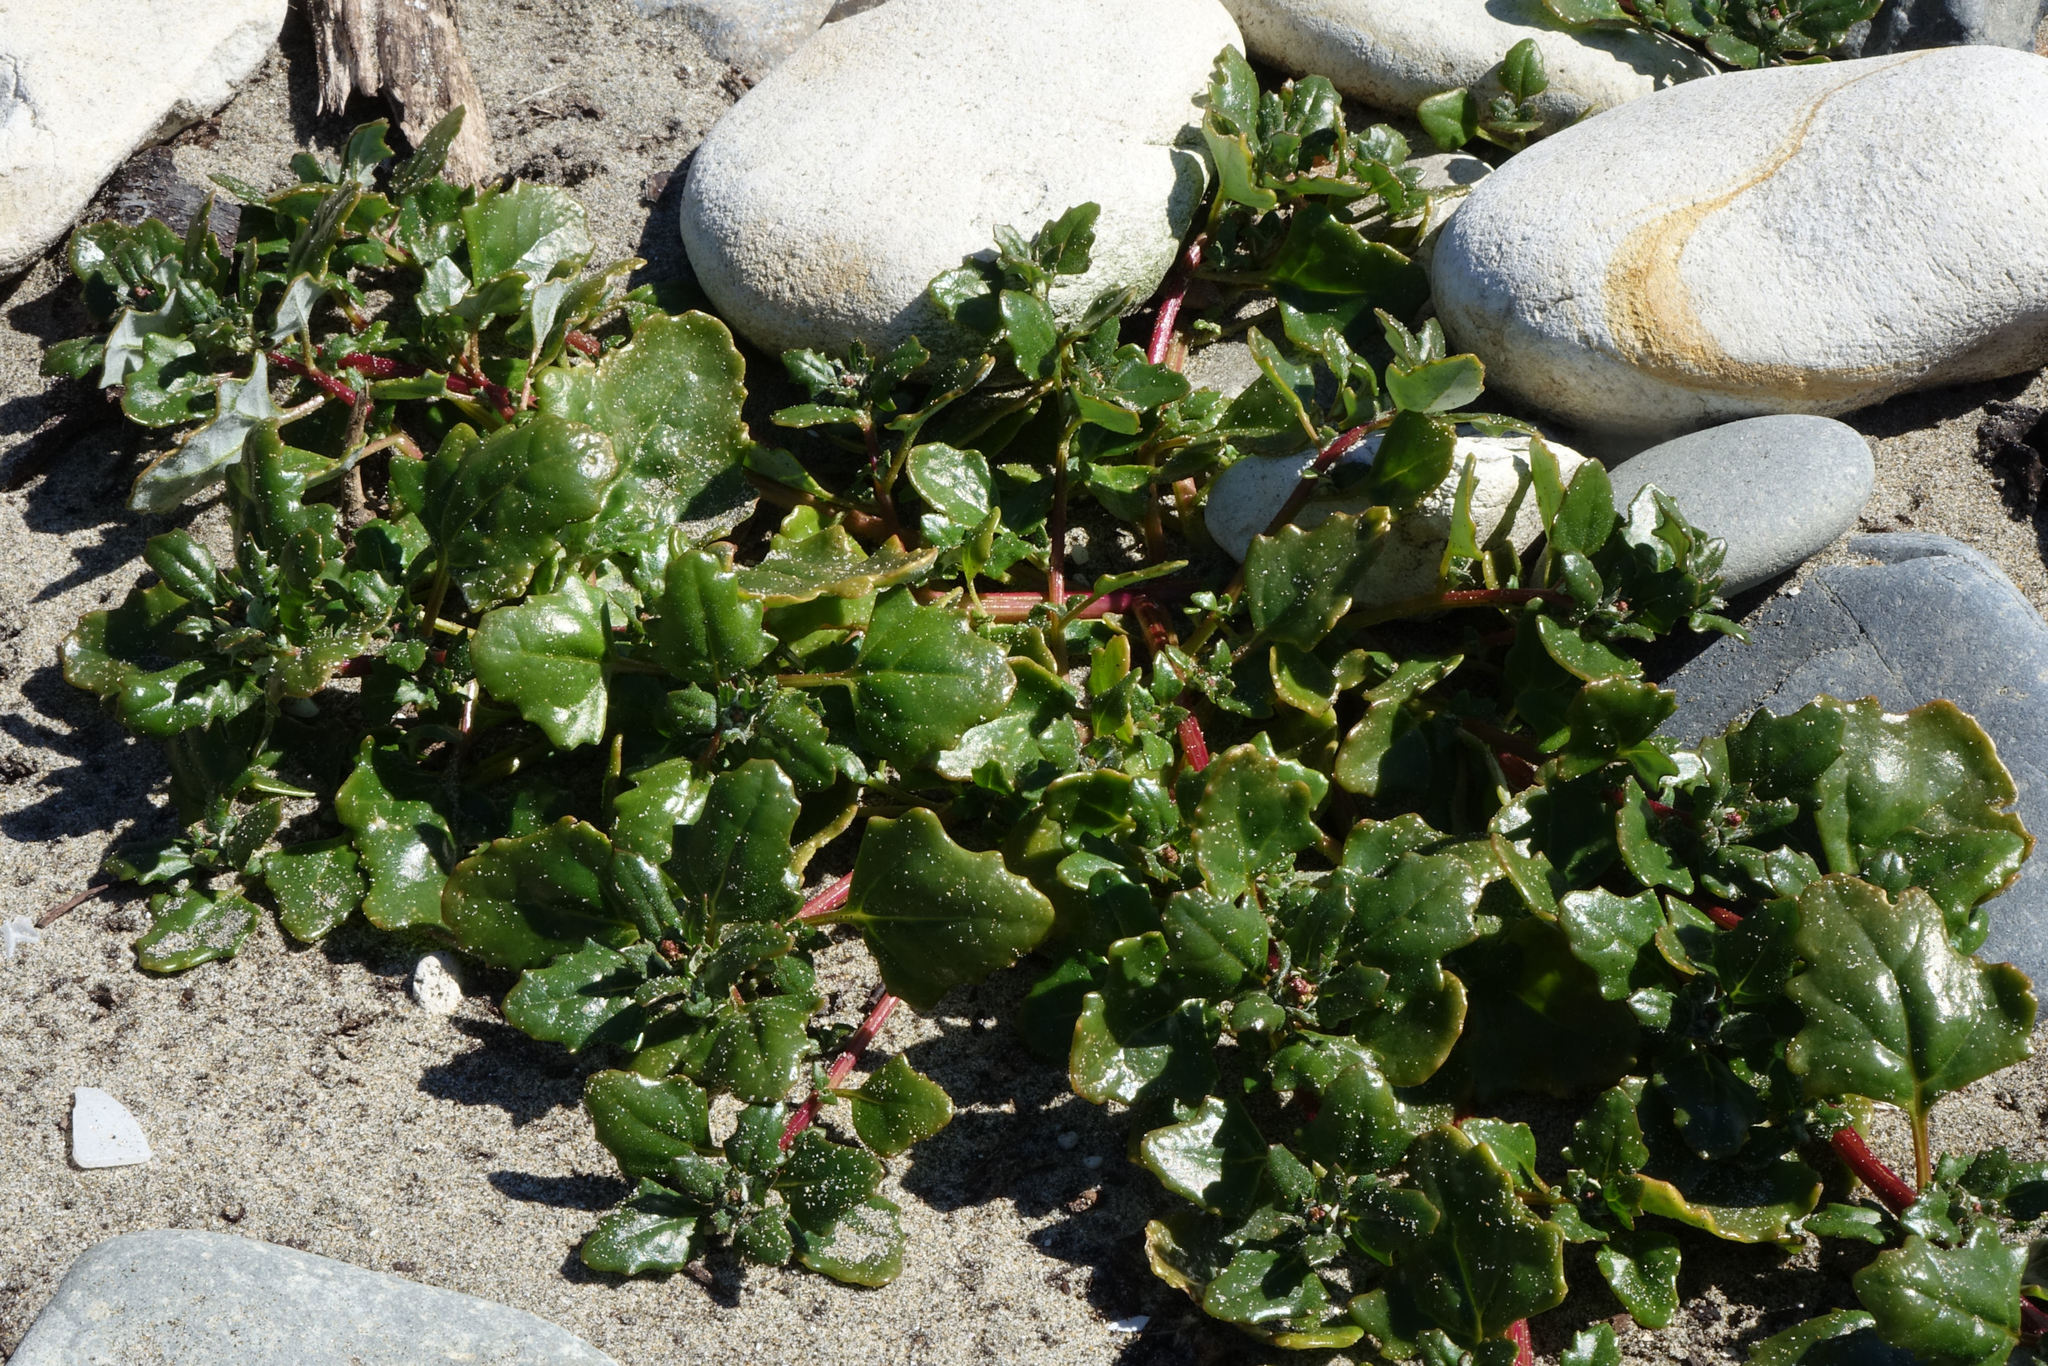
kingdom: Plantae
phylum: Tracheophyta
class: Magnoliopsida
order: Caryophyllales
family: Amaranthaceae
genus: Oxybasis
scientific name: Oxybasis ambigua
